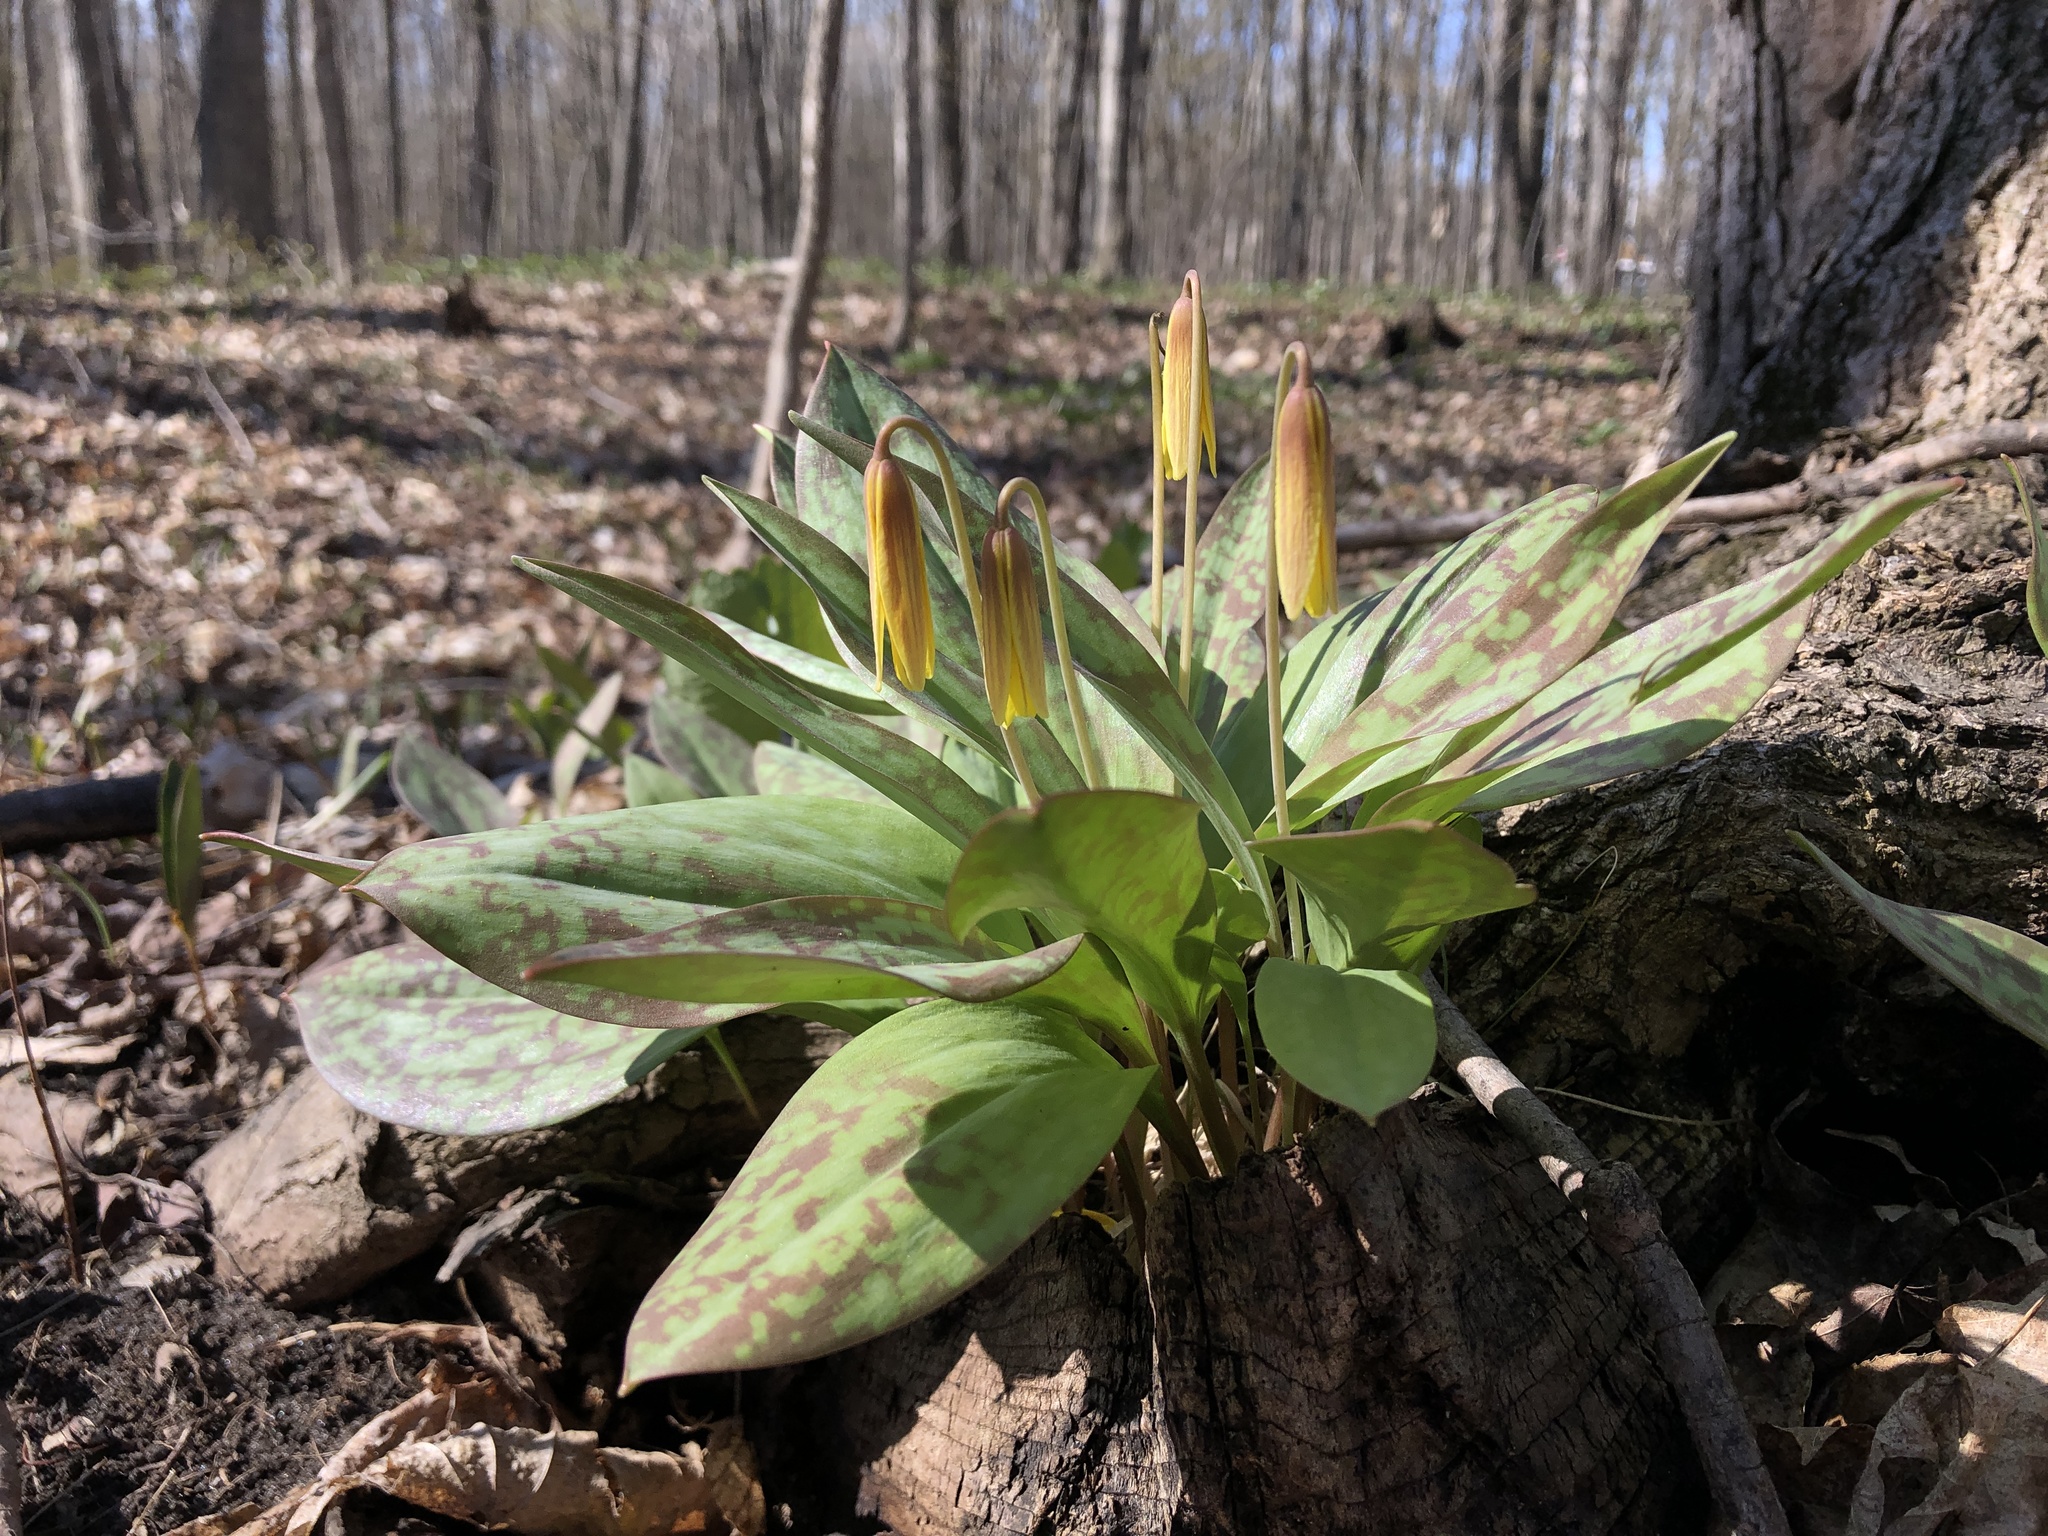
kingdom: Plantae
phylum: Tracheophyta
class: Liliopsida
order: Liliales
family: Liliaceae
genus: Erythronium
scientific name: Erythronium americanum
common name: Yellow adder's-tongue
